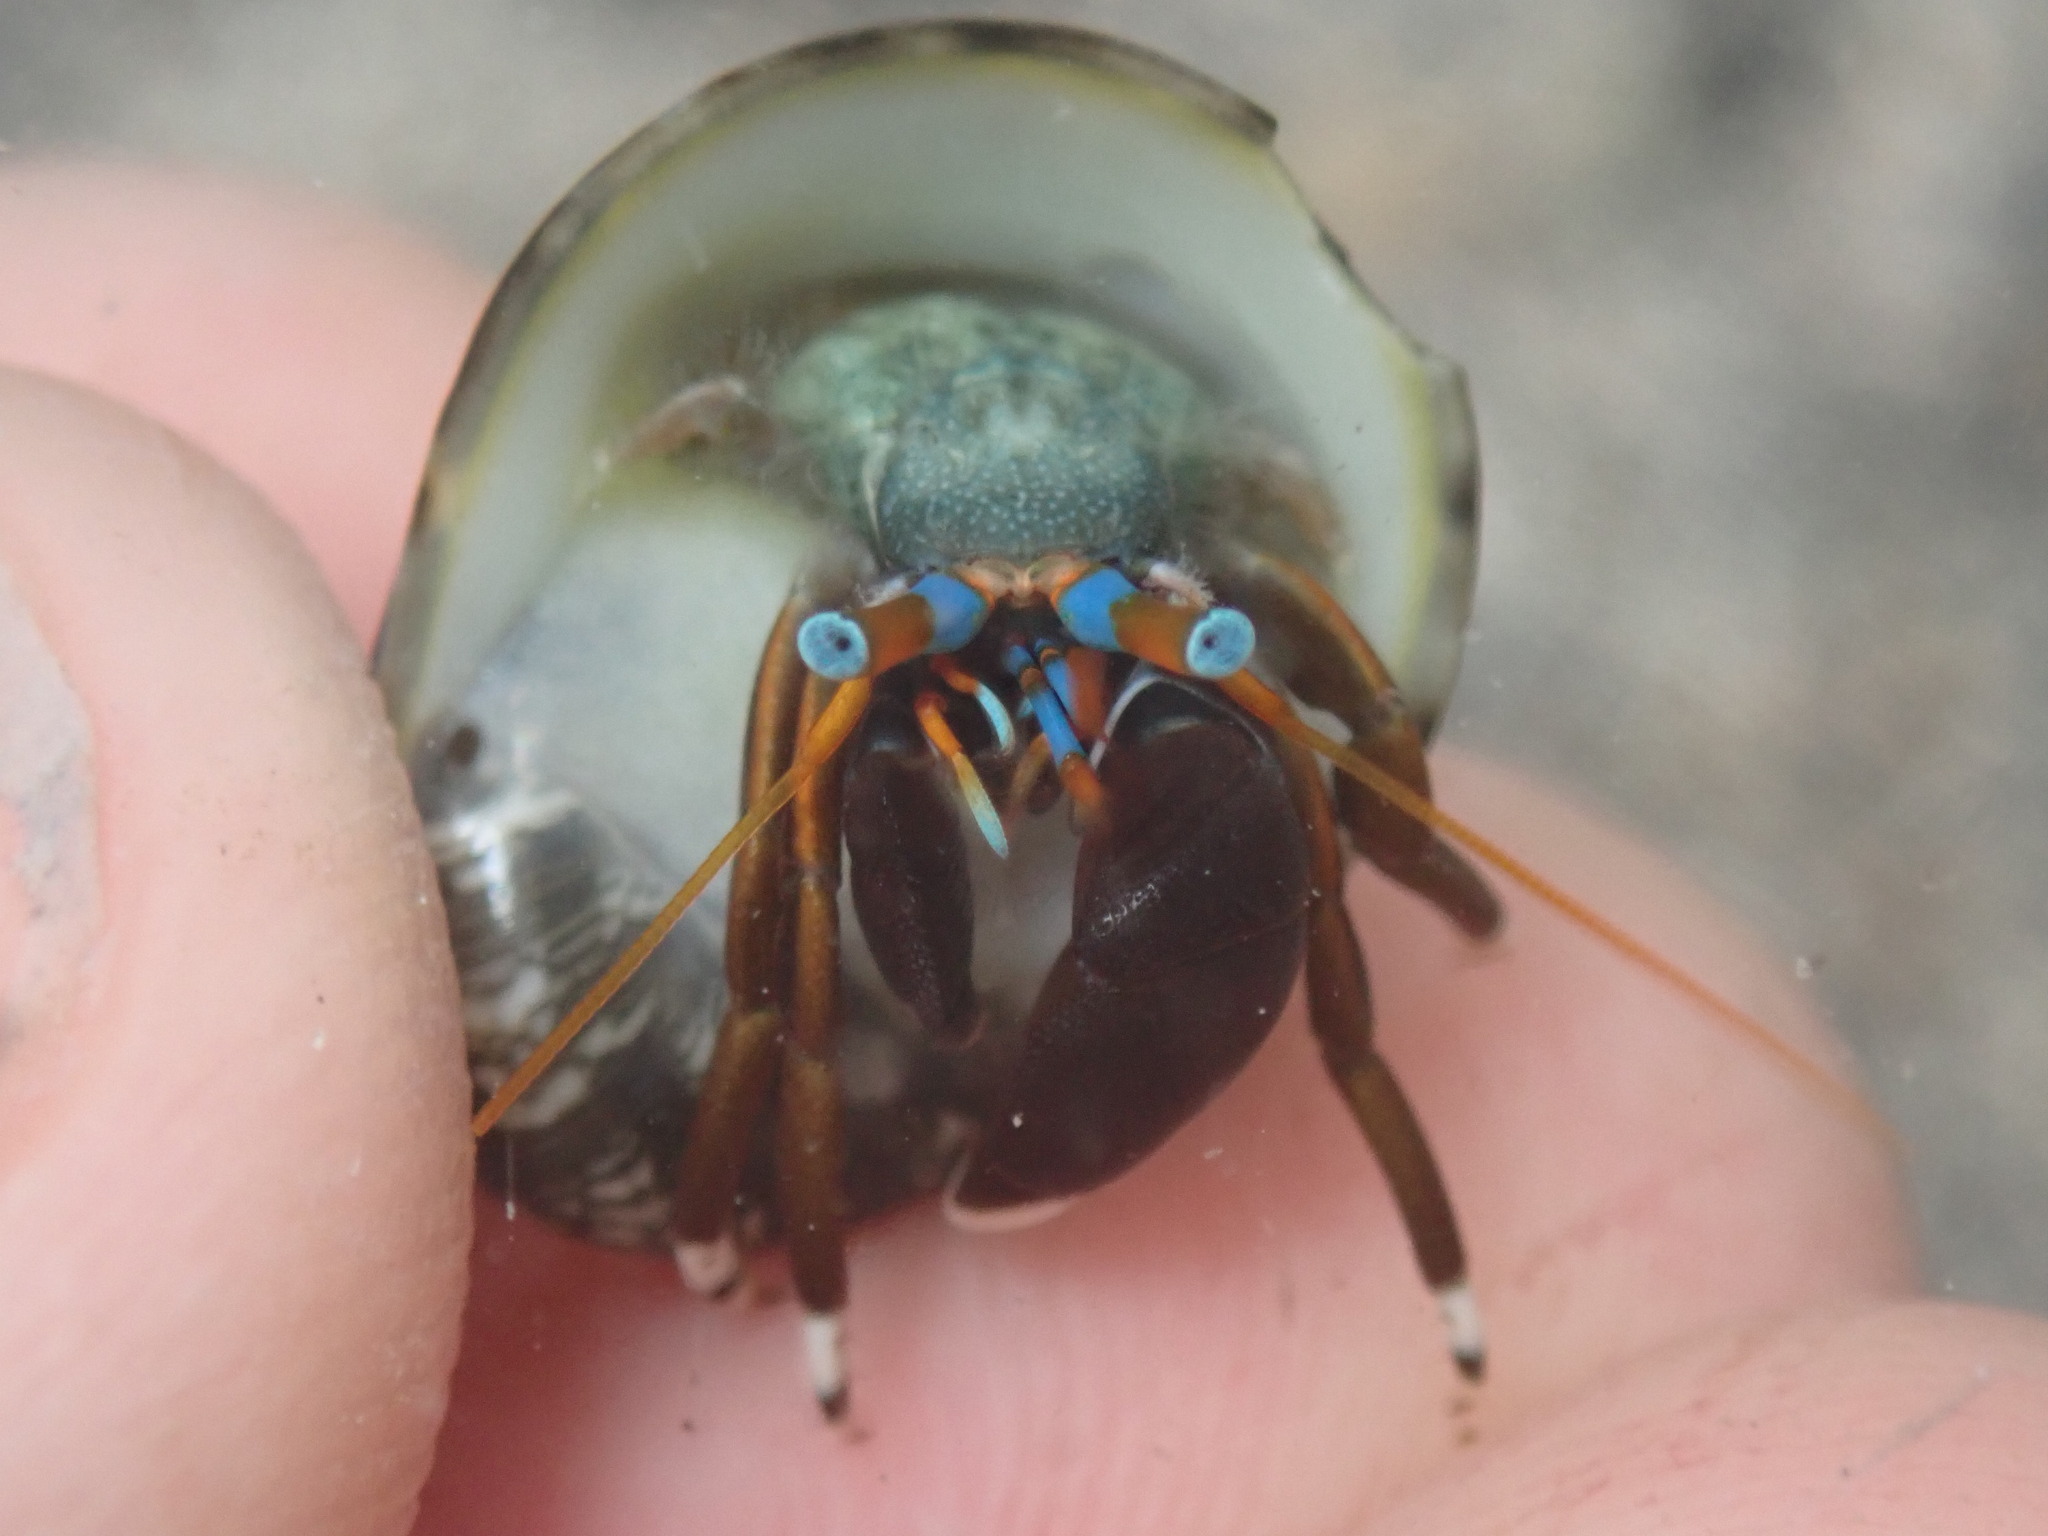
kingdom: Animalia
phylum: Arthropoda
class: Malacostraca
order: Decapoda
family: Diogenidae
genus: Calcinus
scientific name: Calcinus laevimanus
